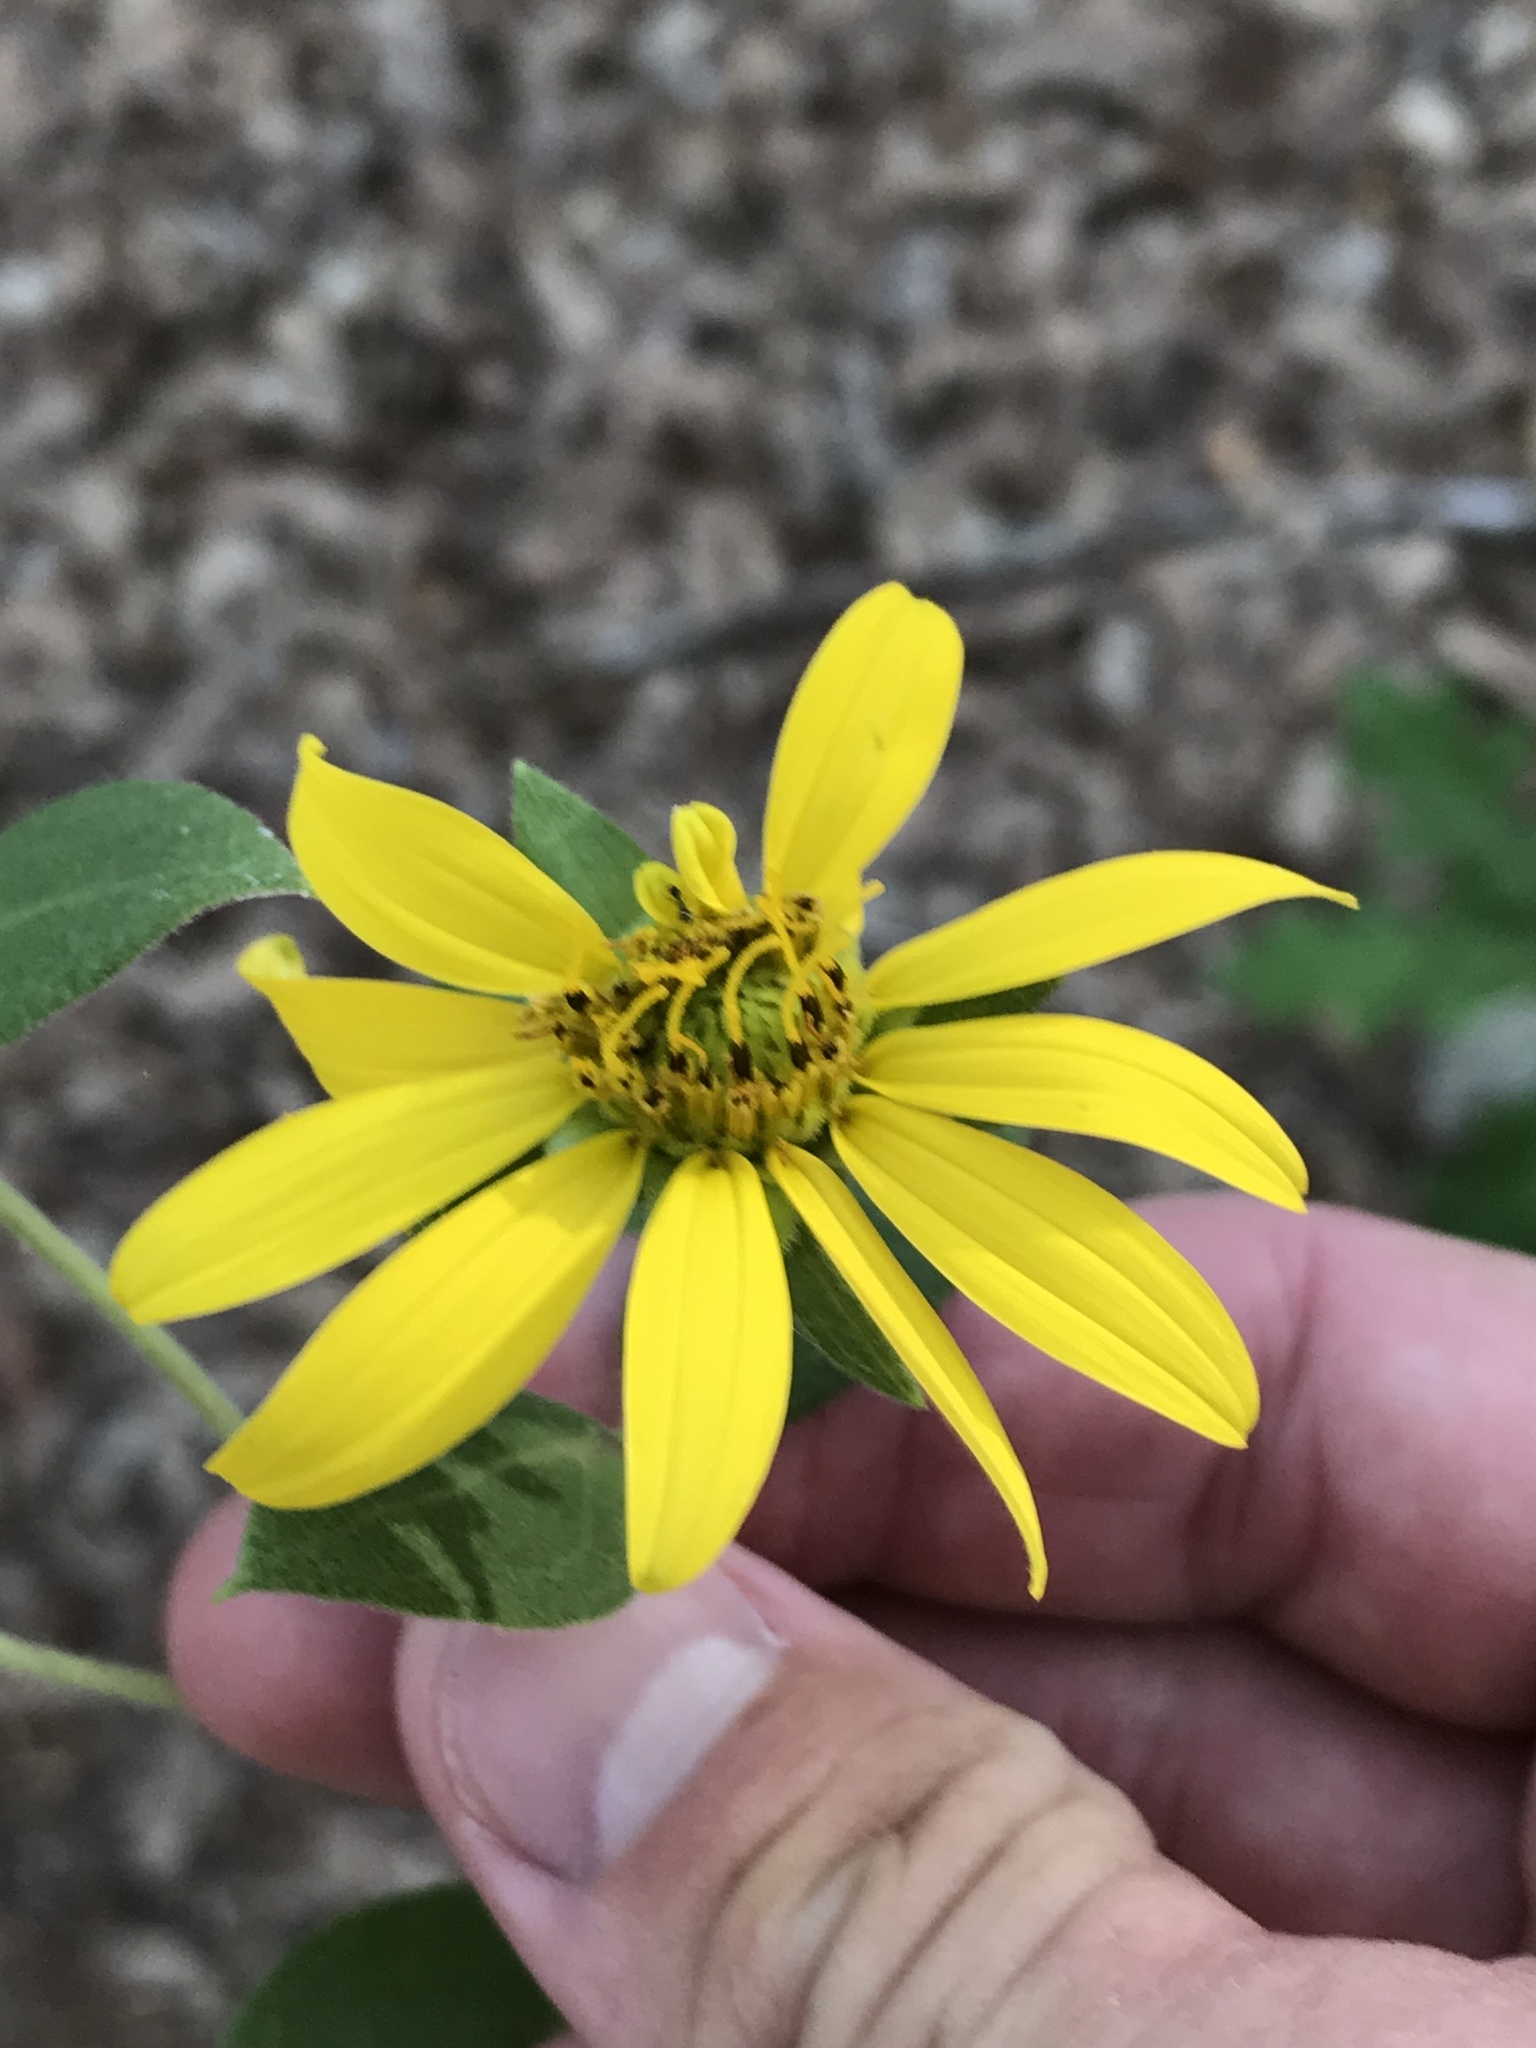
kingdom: Plantae
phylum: Tracheophyta
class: Magnoliopsida
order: Asterales
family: Asteraceae
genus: Silphium
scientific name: Silphium asteriscus
